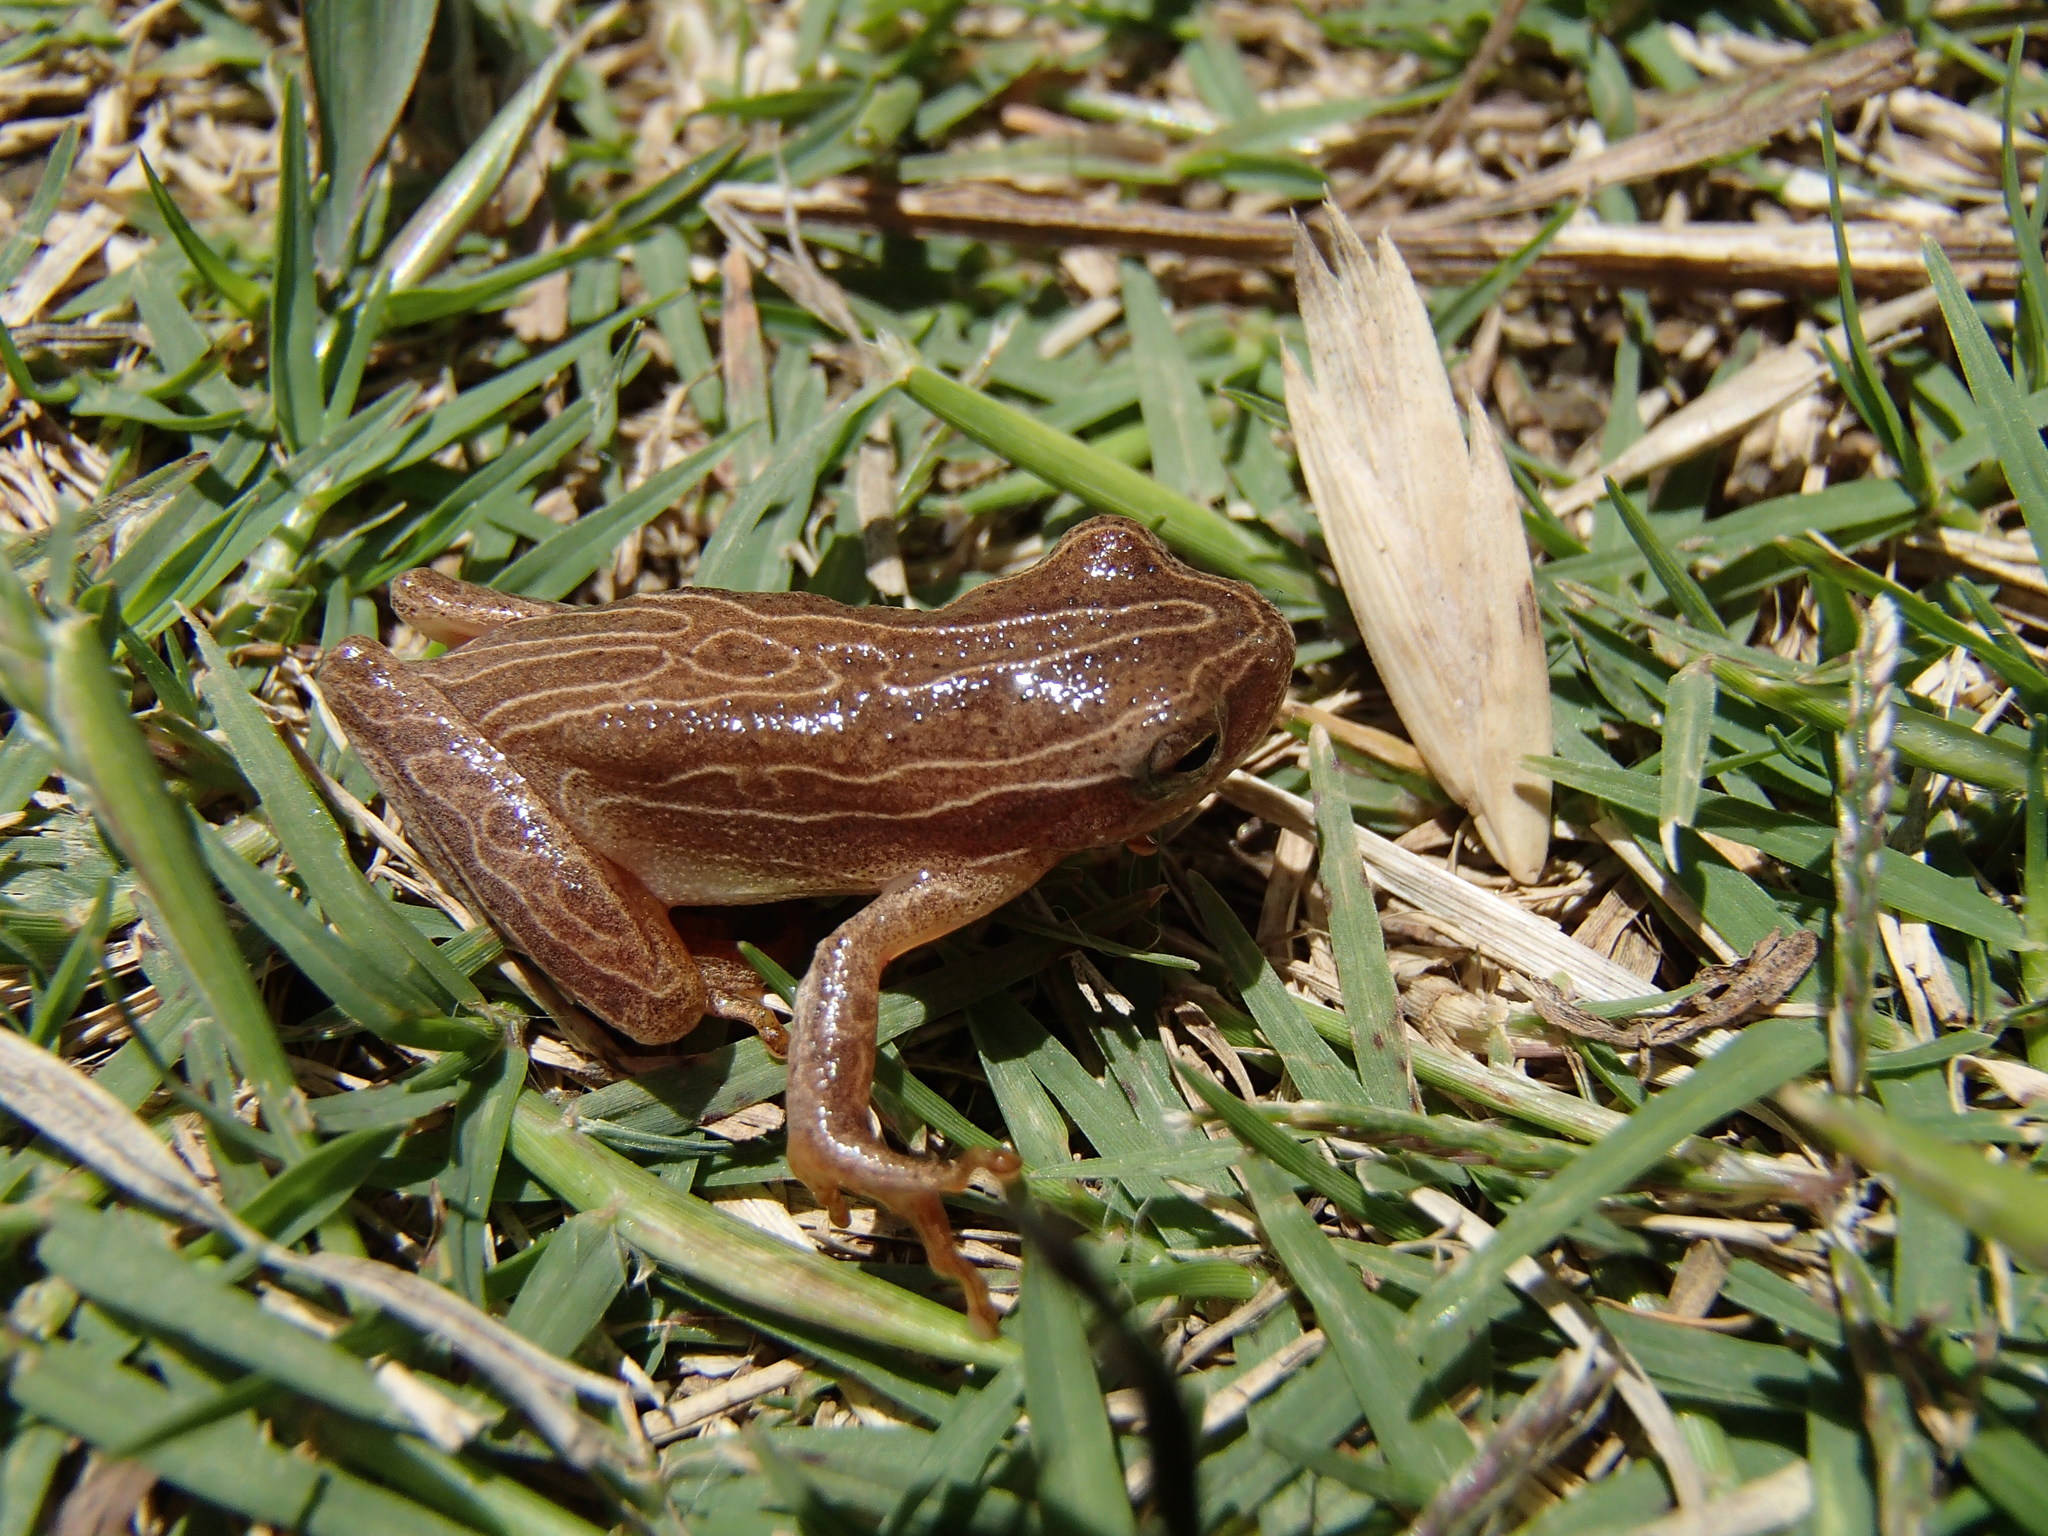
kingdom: Animalia
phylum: Chordata
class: Amphibia
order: Anura
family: Hylidae
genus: Dendropsophus
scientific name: Dendropsophus minutus
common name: Lesser treefrog
